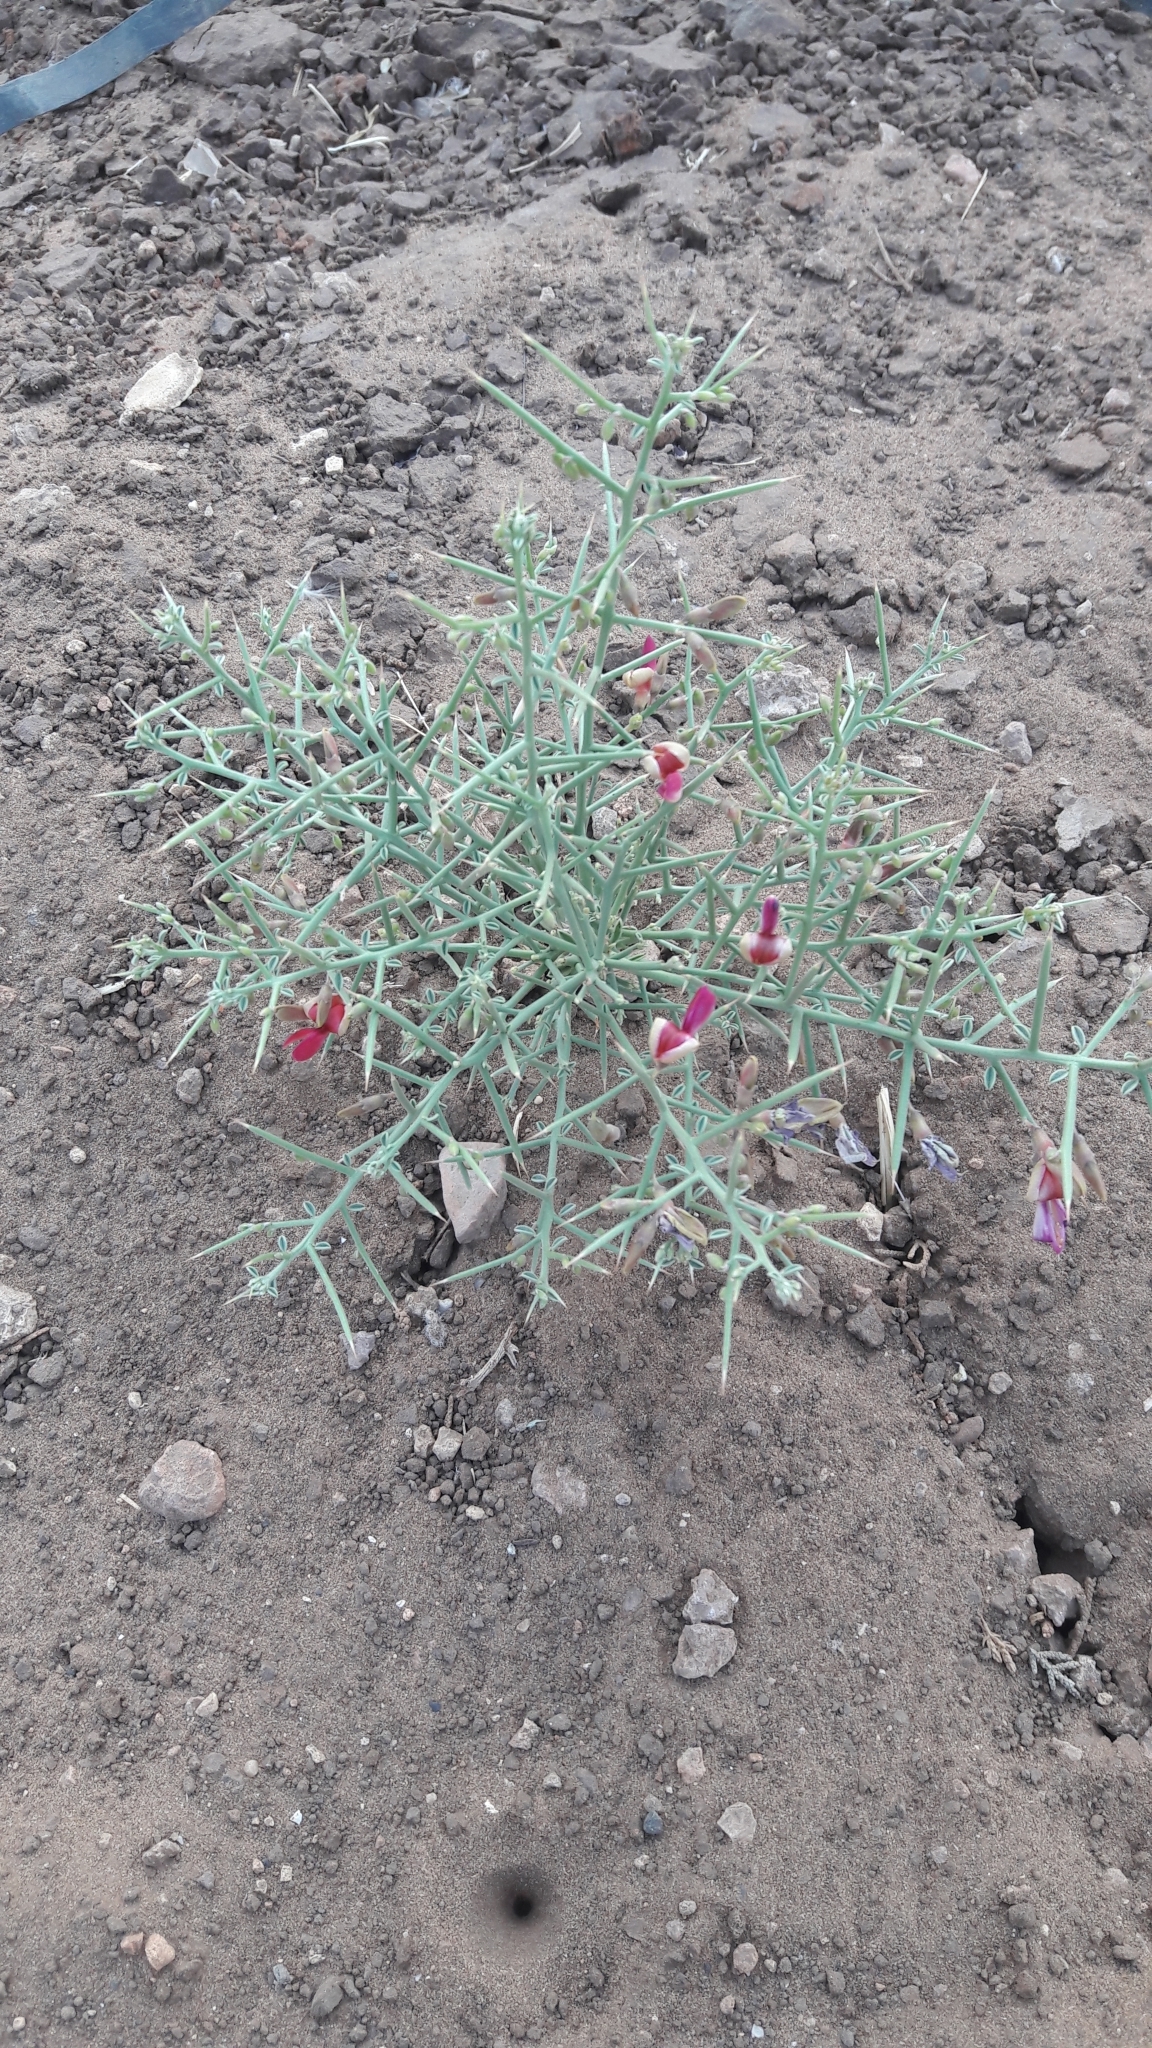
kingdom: Plantae
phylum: Tracheophyta
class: Magnoliopsida
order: Fabales
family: Fabaceae
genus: Alhagi
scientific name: Alhagi graecorum
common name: Persian mannaplant
